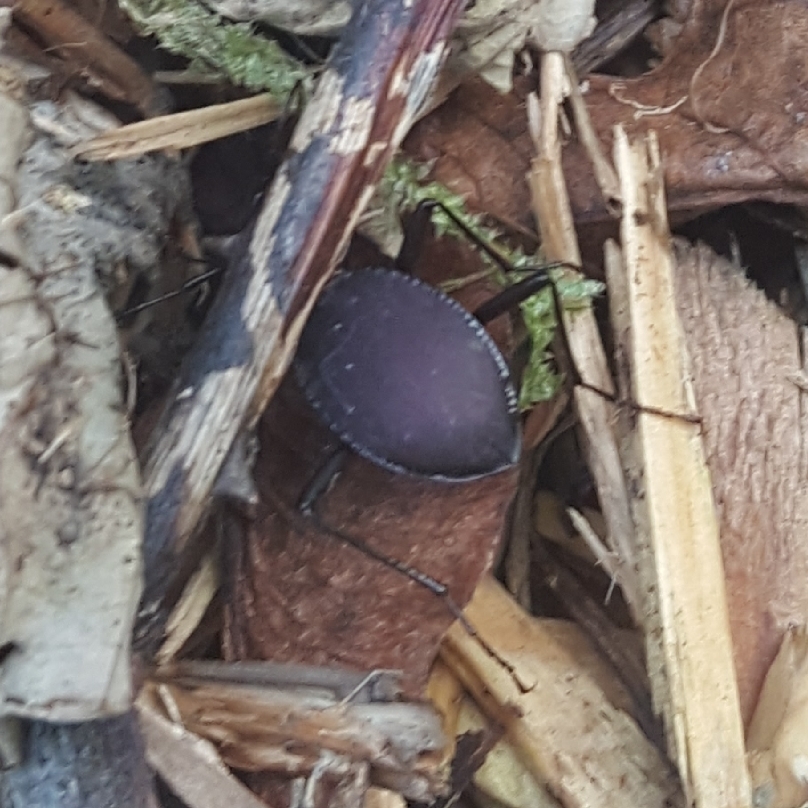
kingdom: Animalia
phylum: Arthropoda
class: Insecta
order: Coleoptera
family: Carabidae
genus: Scaphinotus
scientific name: Scaphinotus angusticollis
